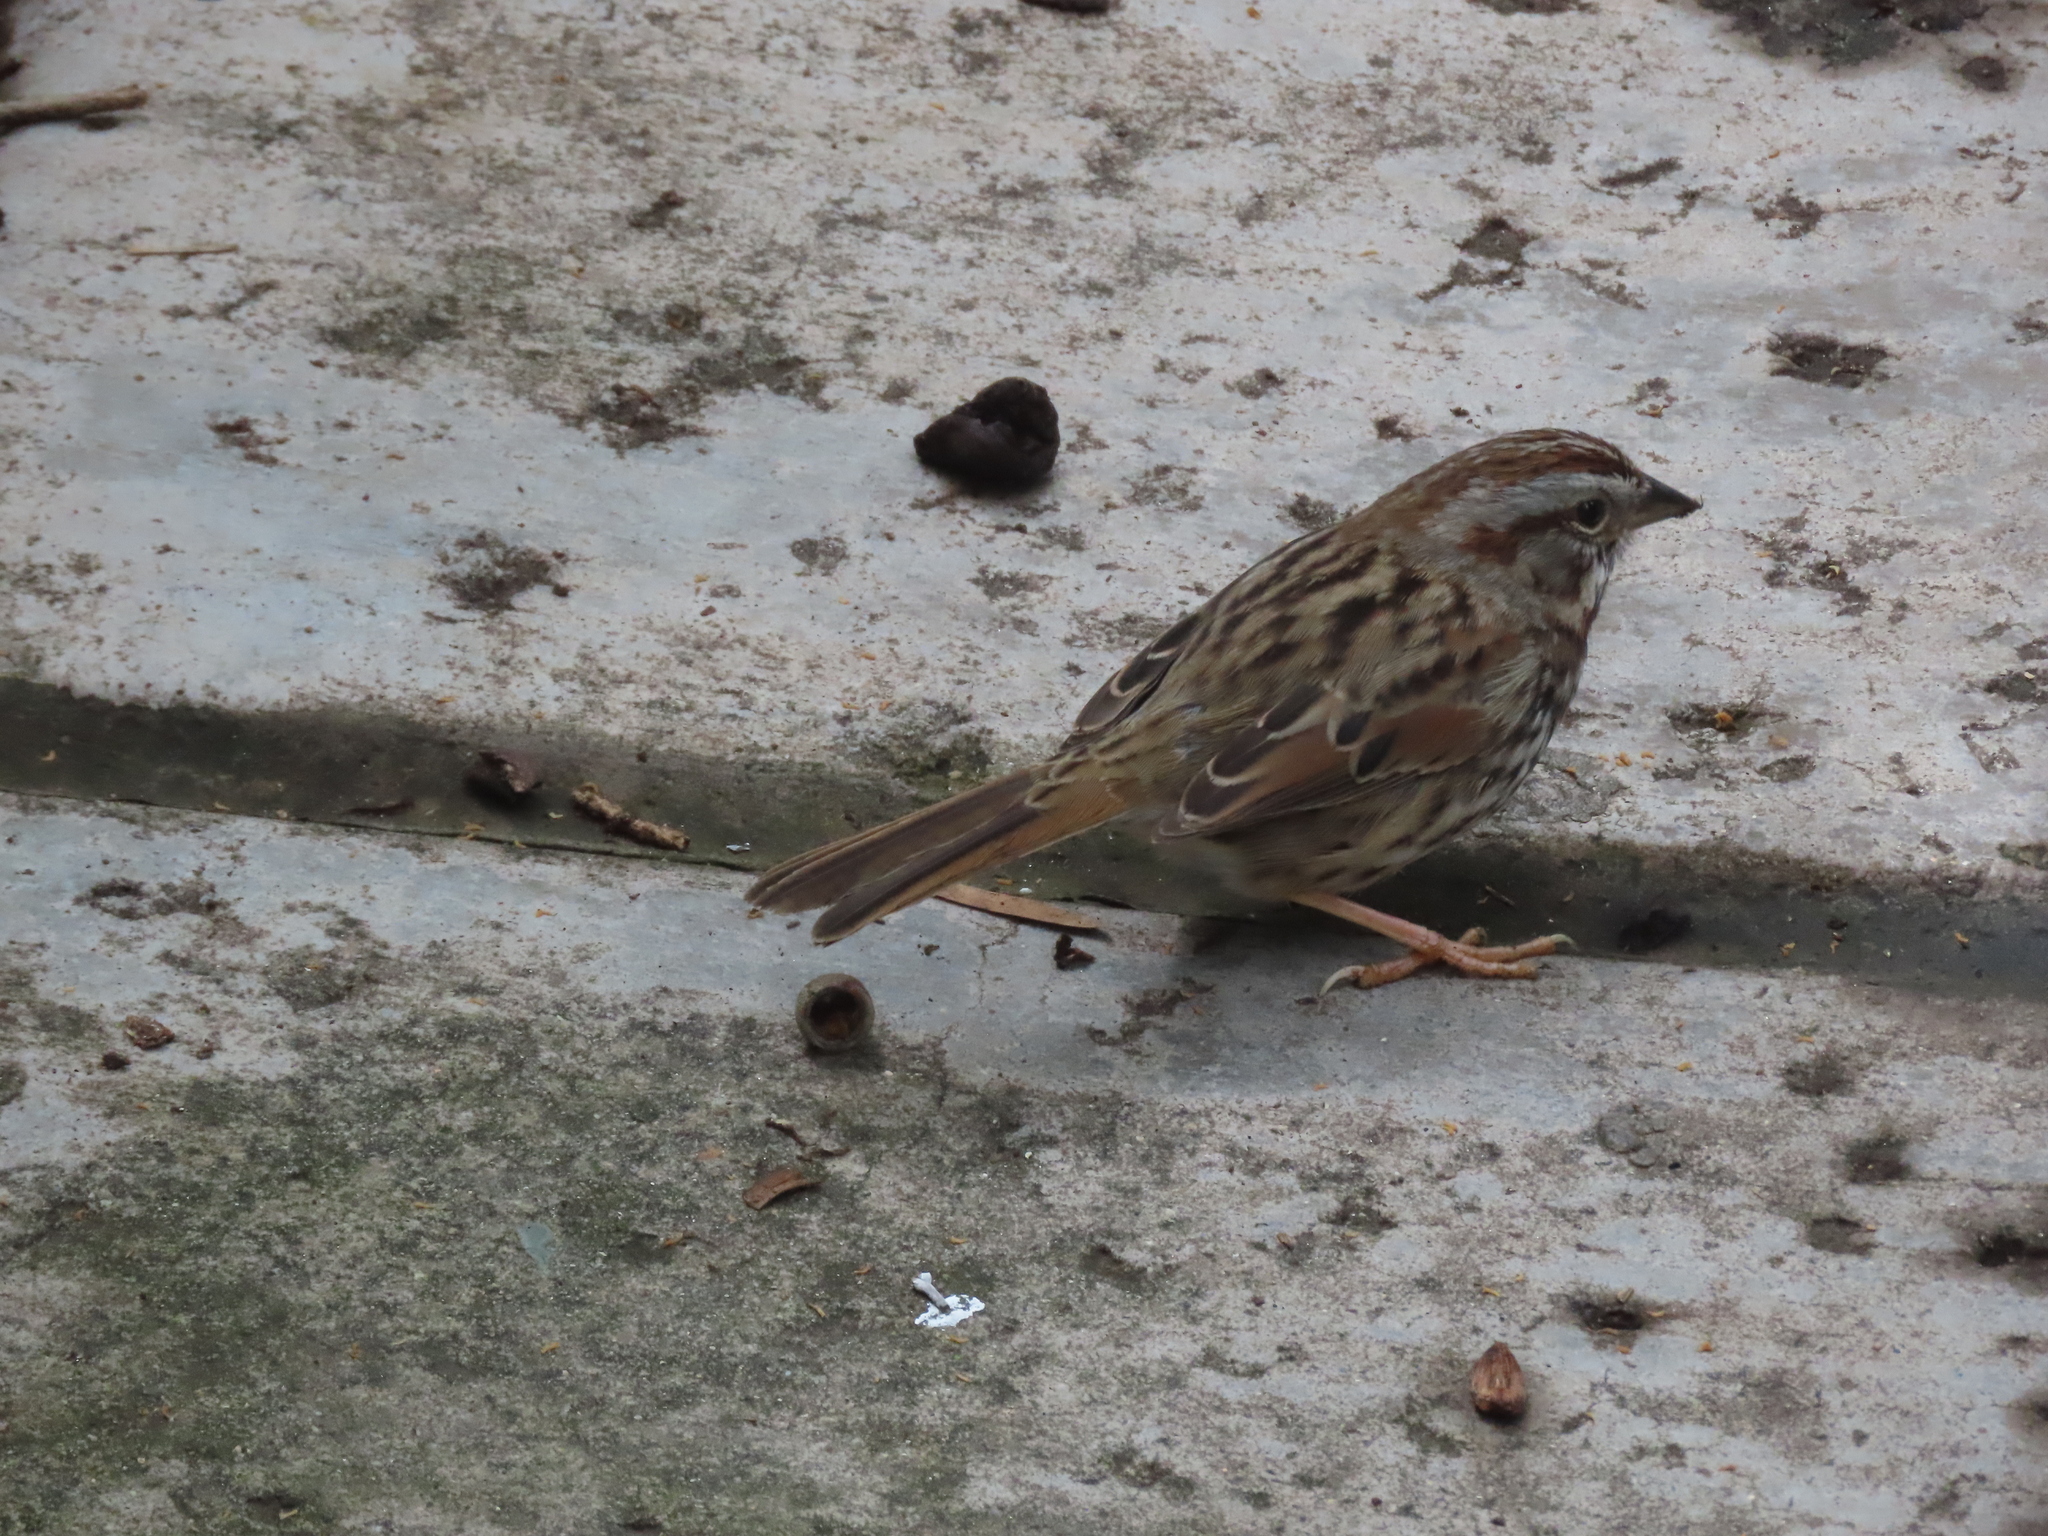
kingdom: Animalia
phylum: Chordata
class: Aves
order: Passeriformes
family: Passerellidae
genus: Melospiza
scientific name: Melospiza melodia
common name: Song sparrow
